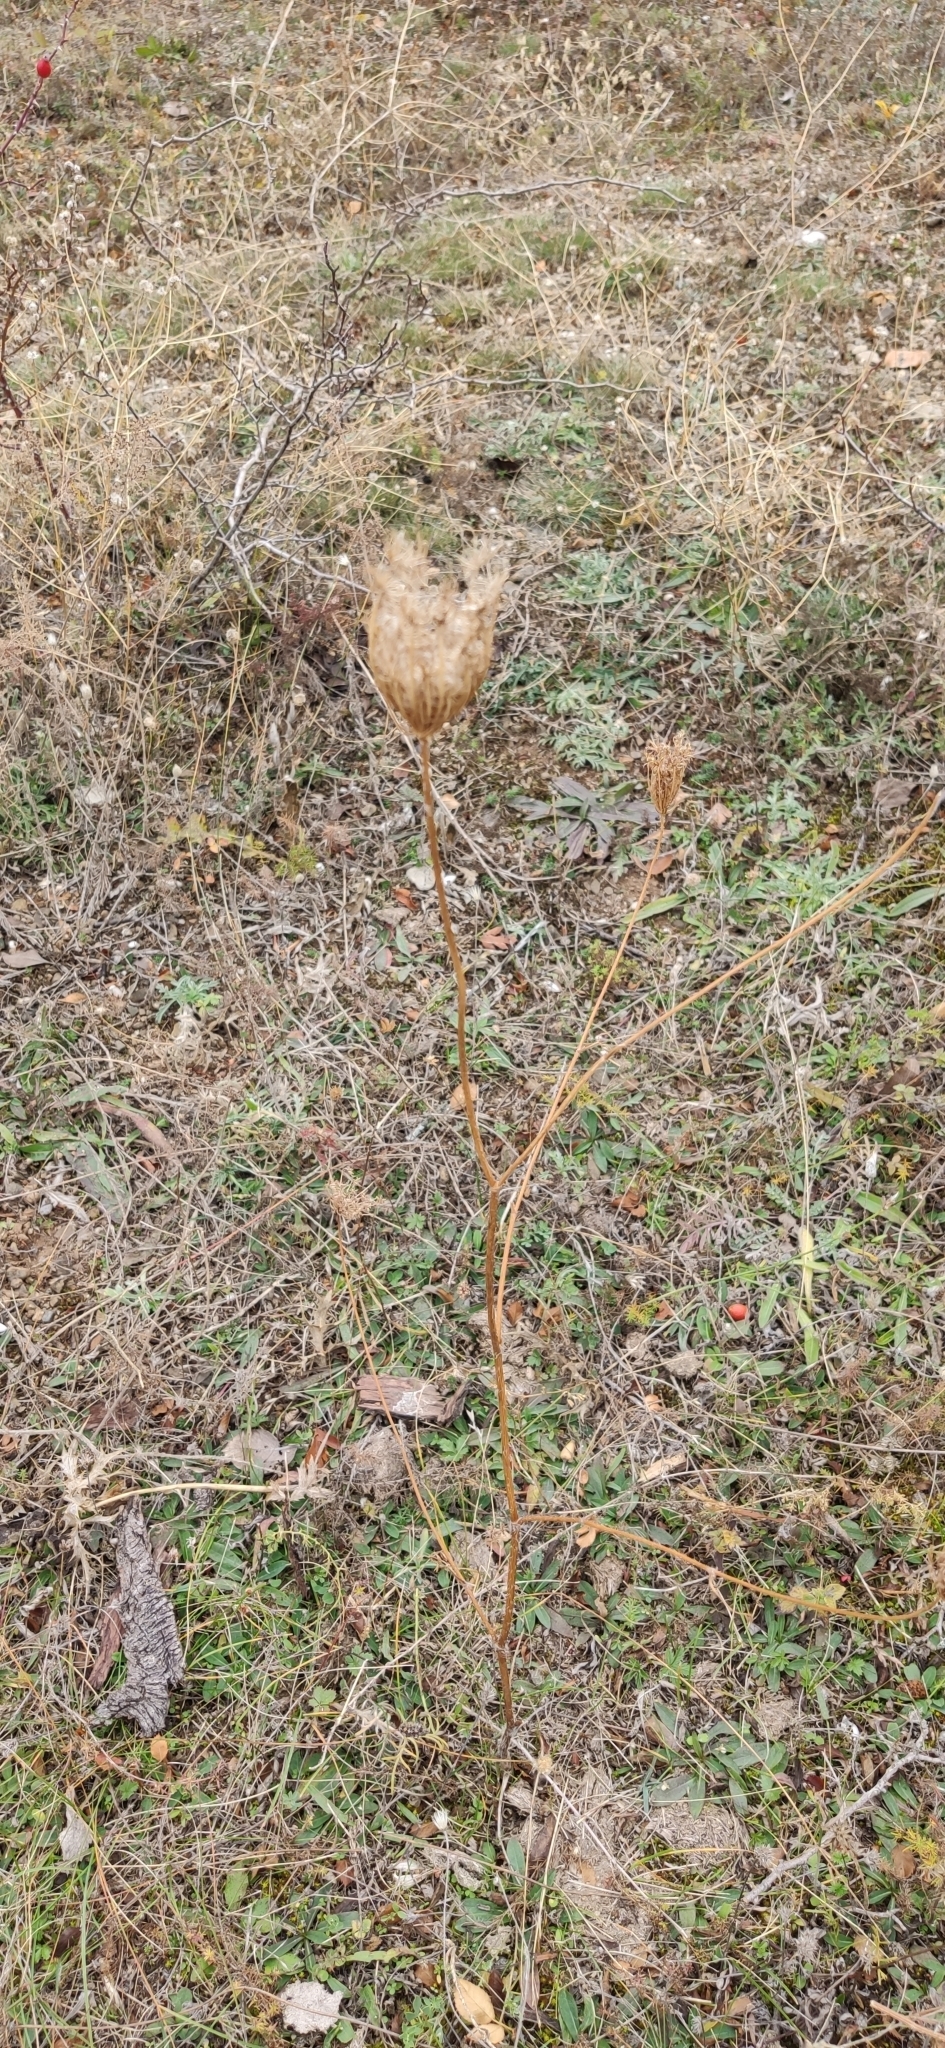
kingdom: Plantae
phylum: Tracheophyta
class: Magnoliopsida
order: Apiales
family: Apiaceae
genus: Daucus
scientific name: Daucus carota
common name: Wild carrot
